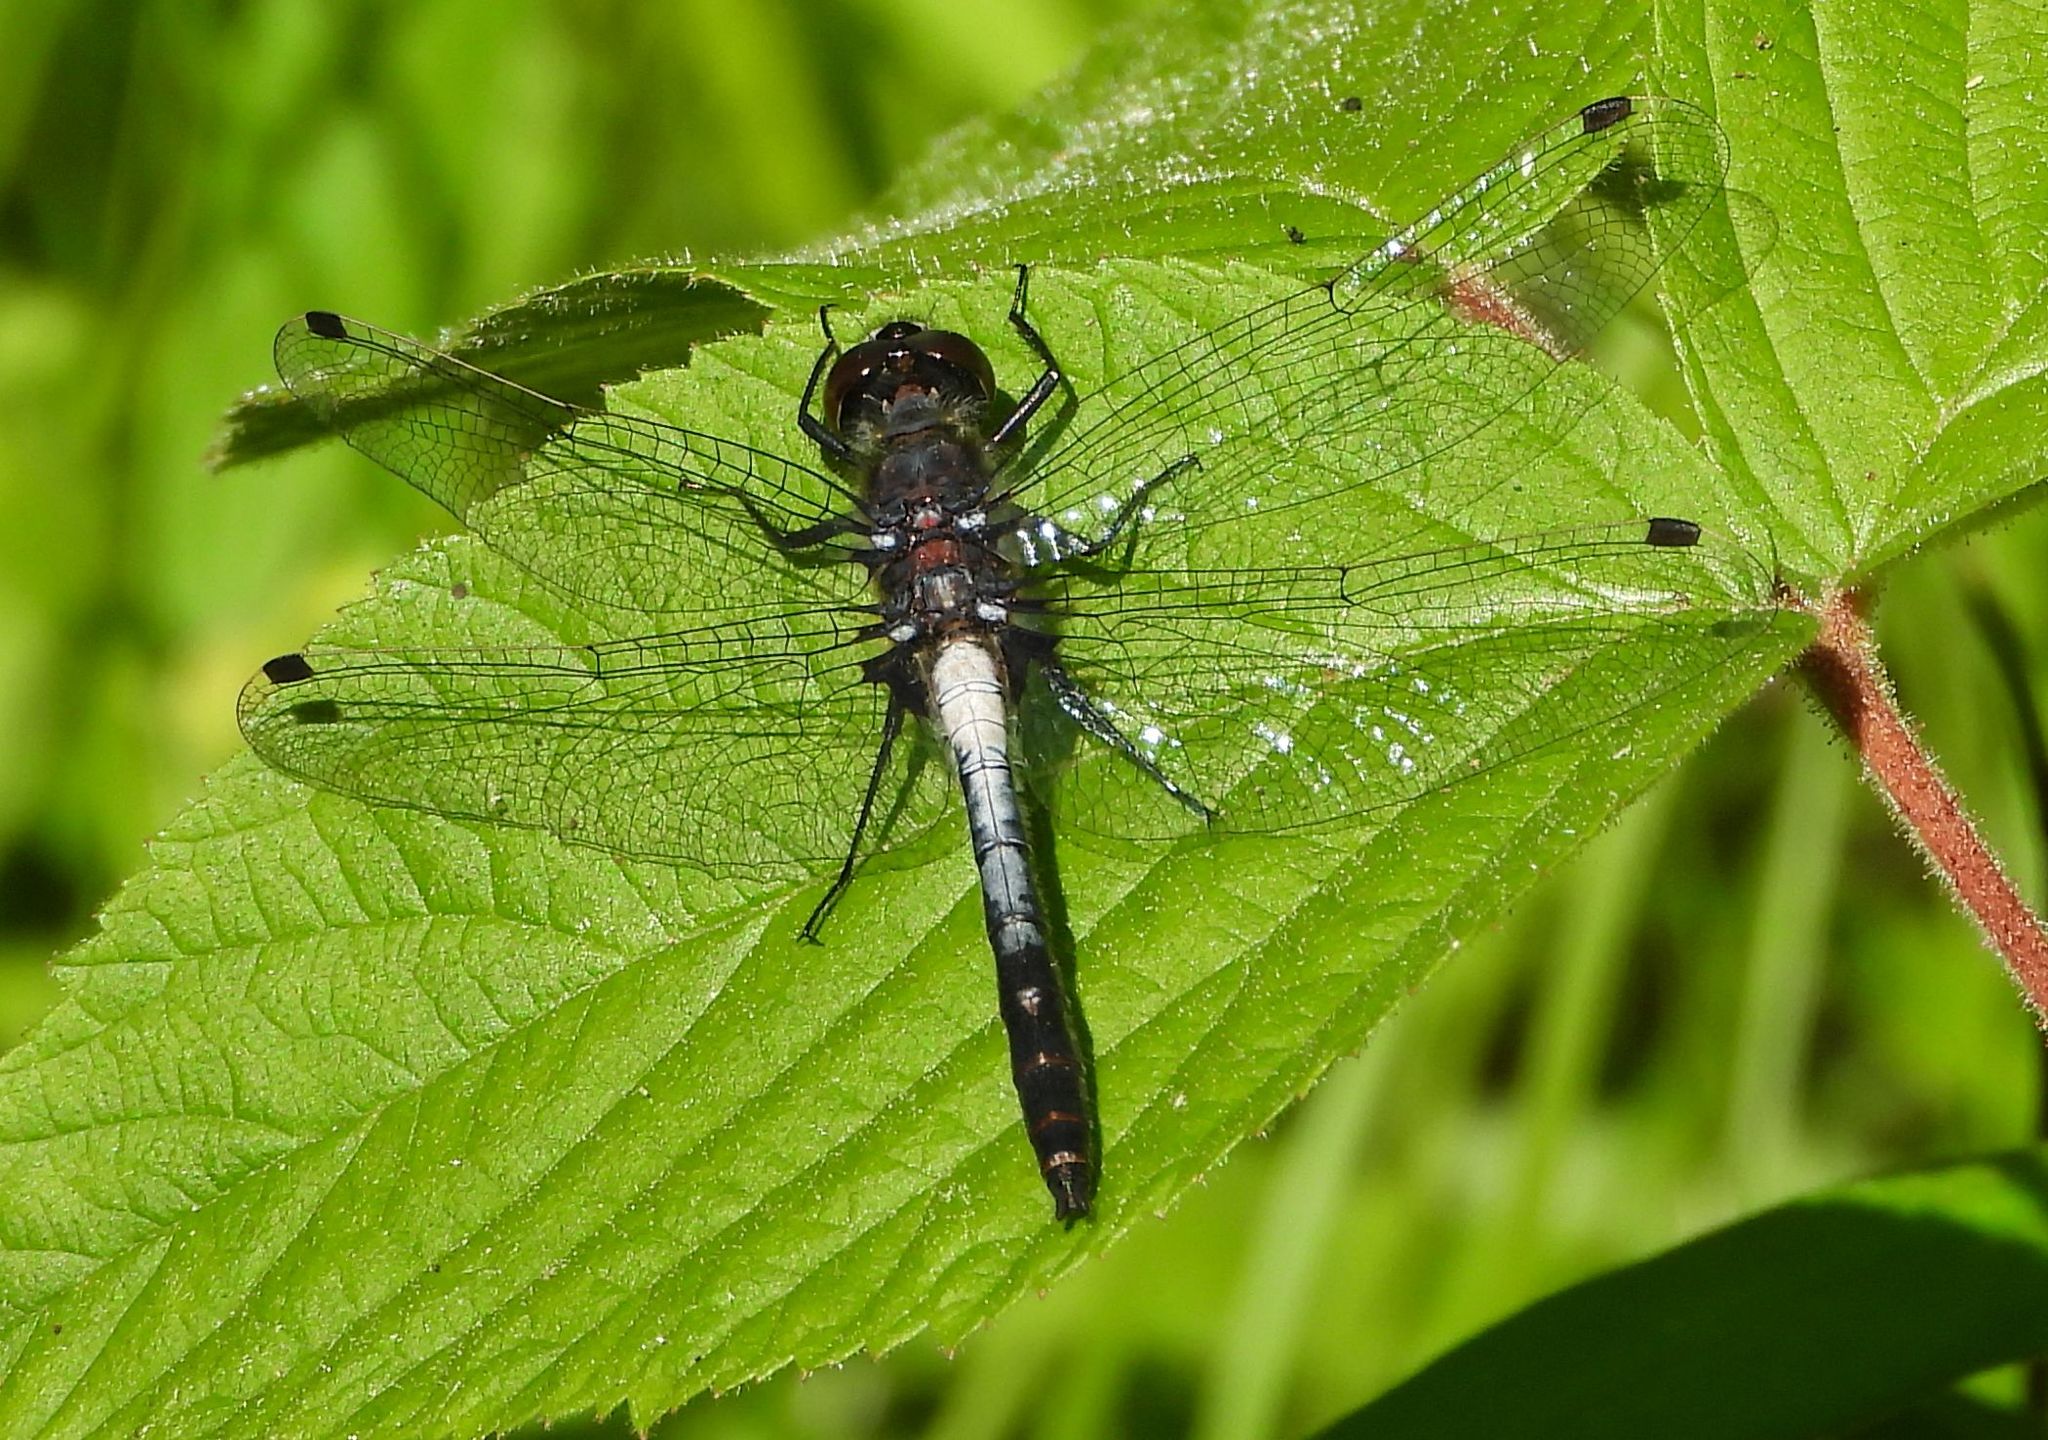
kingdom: Animalia
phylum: Arthropoda
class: Insecta
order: Odonata
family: Libellulidae
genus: Leucorrhinia
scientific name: Leucorrhinia proxima
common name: Belted whiteface
